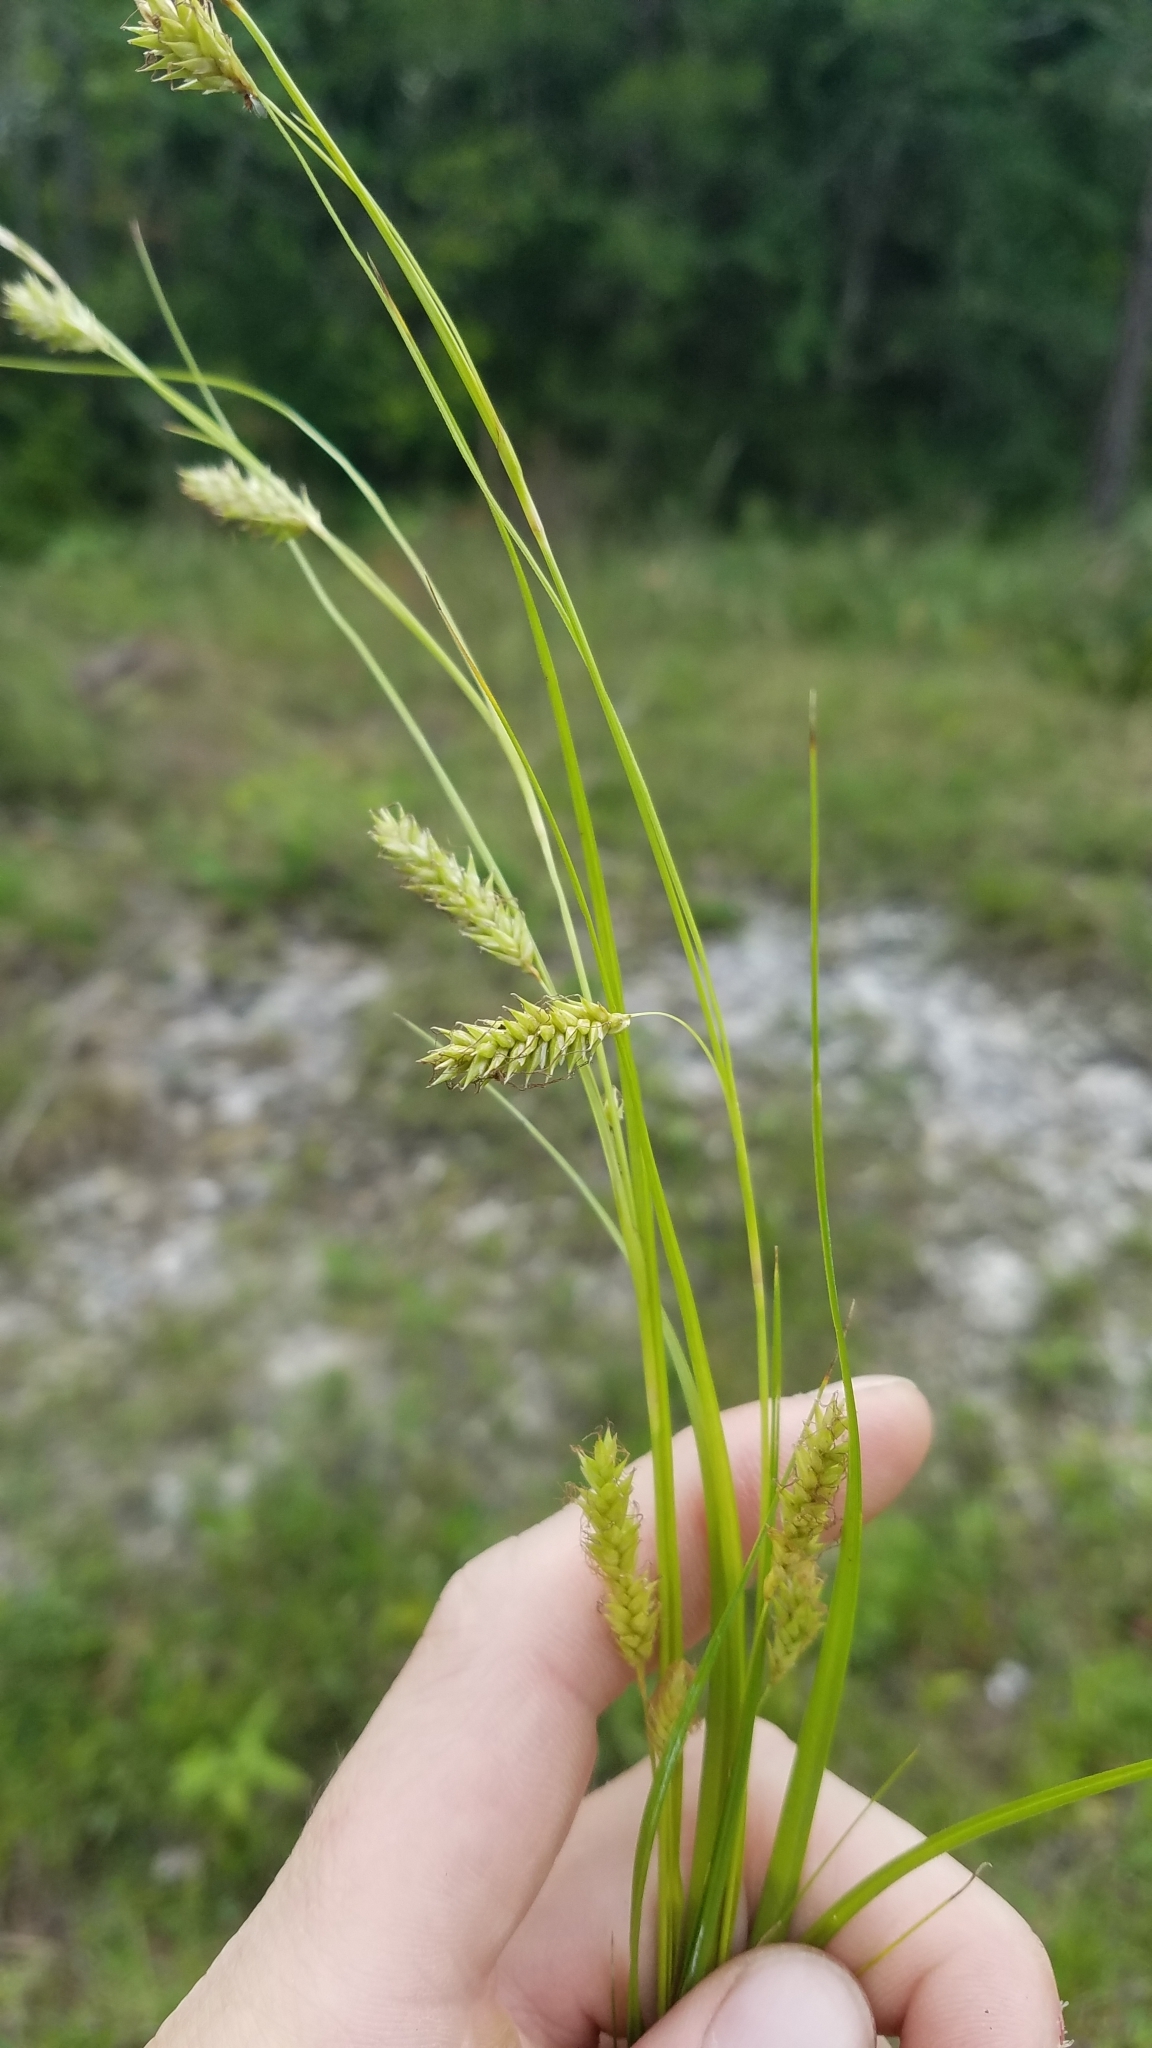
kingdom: Plantae
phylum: Tracheophyta
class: Liliopsida
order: Poales
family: Cyperaceae
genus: Carex
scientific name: Carex cherokeensis
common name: Cherokee sedge
